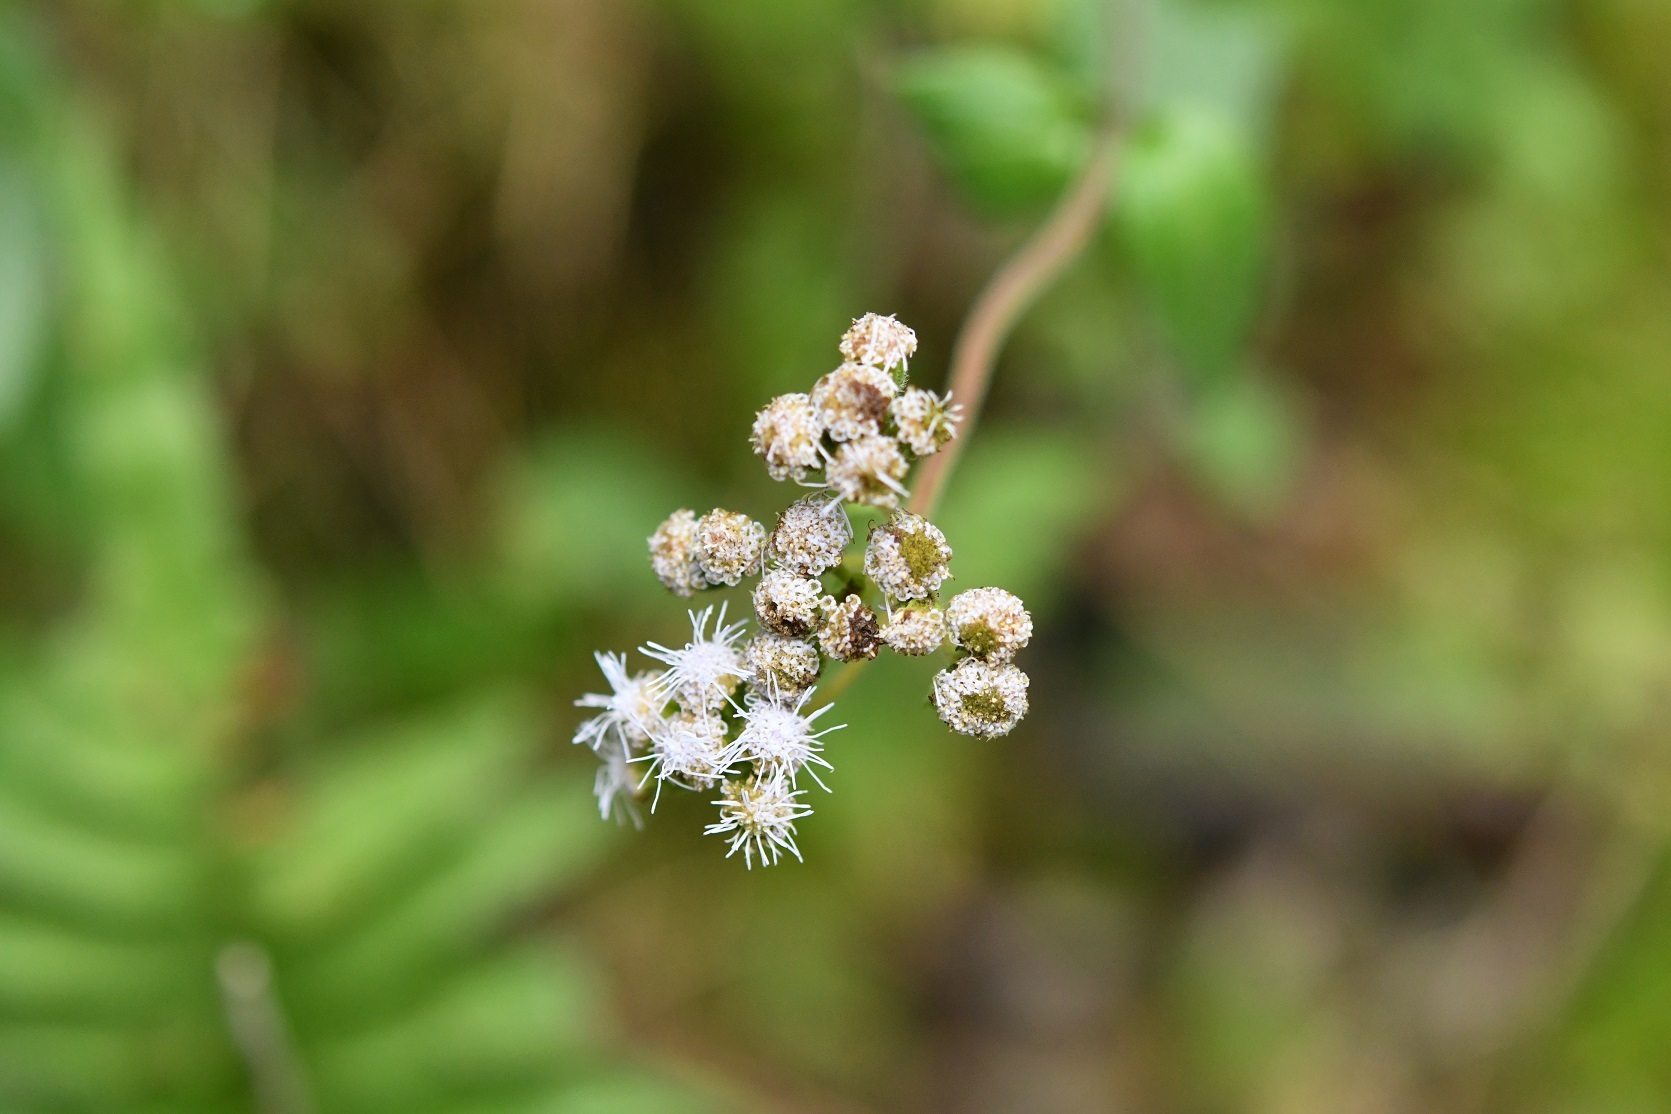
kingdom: Plantae
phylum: Tracheophyta
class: Magnoliopsida
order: Asterales
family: Asteraceae
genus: Ageratum
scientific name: Ageratum conyzoides
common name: Tropical whiteweed
